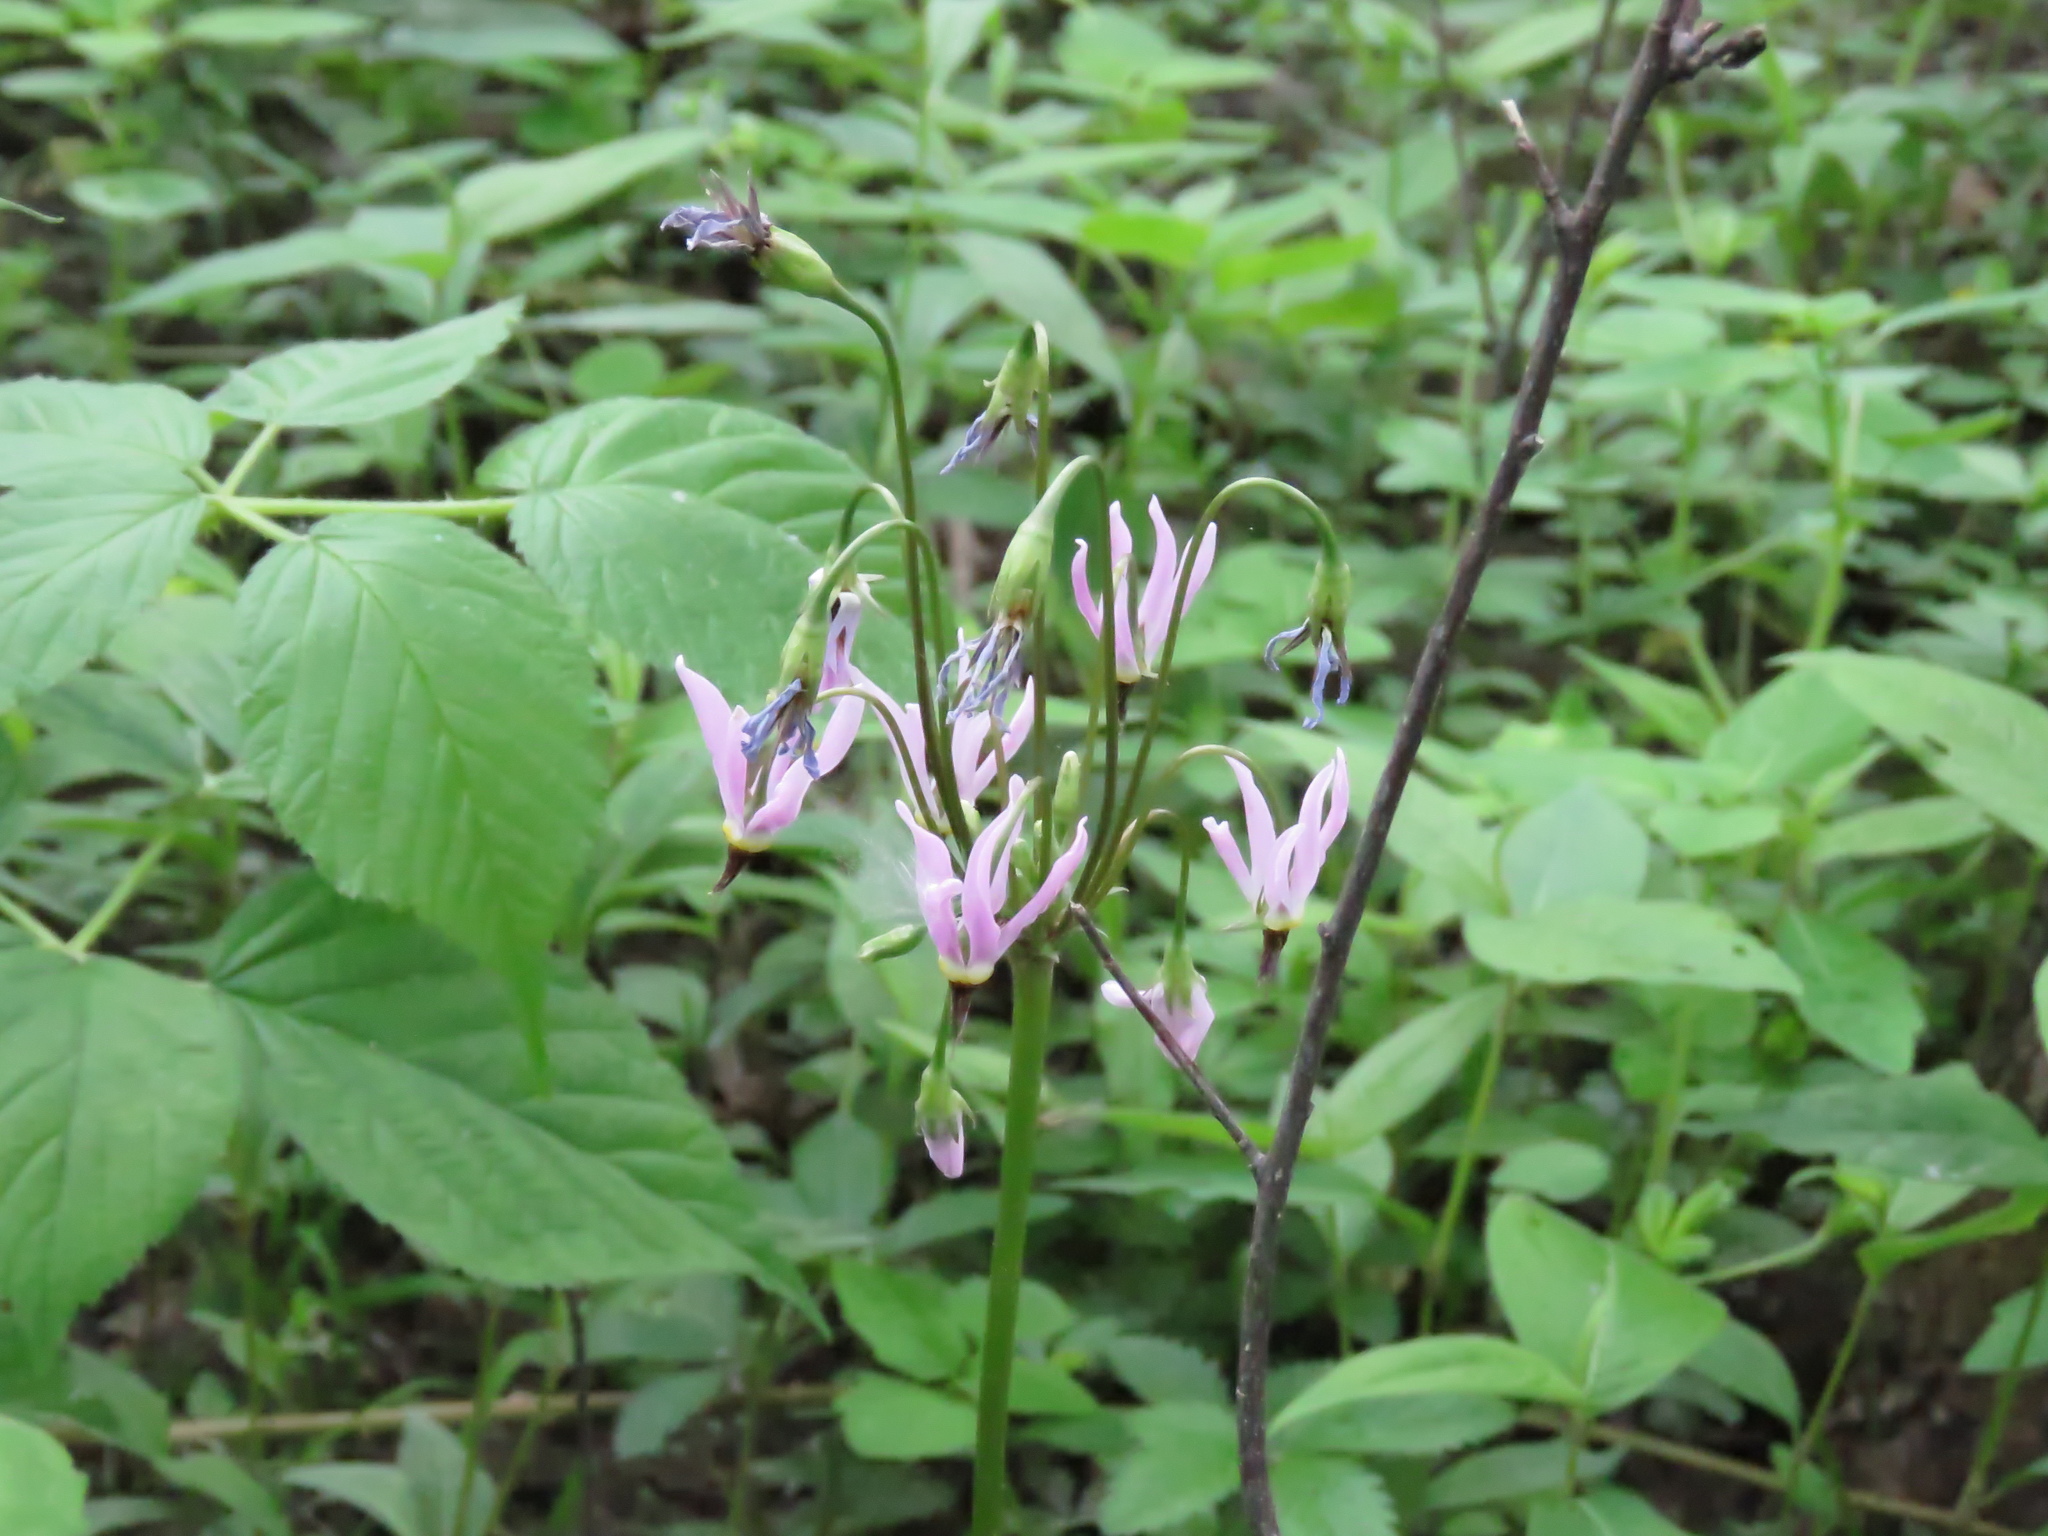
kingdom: Plantae
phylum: Tracheophyta
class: Magnoliopsida
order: Ericales
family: Primulaceae
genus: Dodecatheon
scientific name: Dodecatheon meadia
